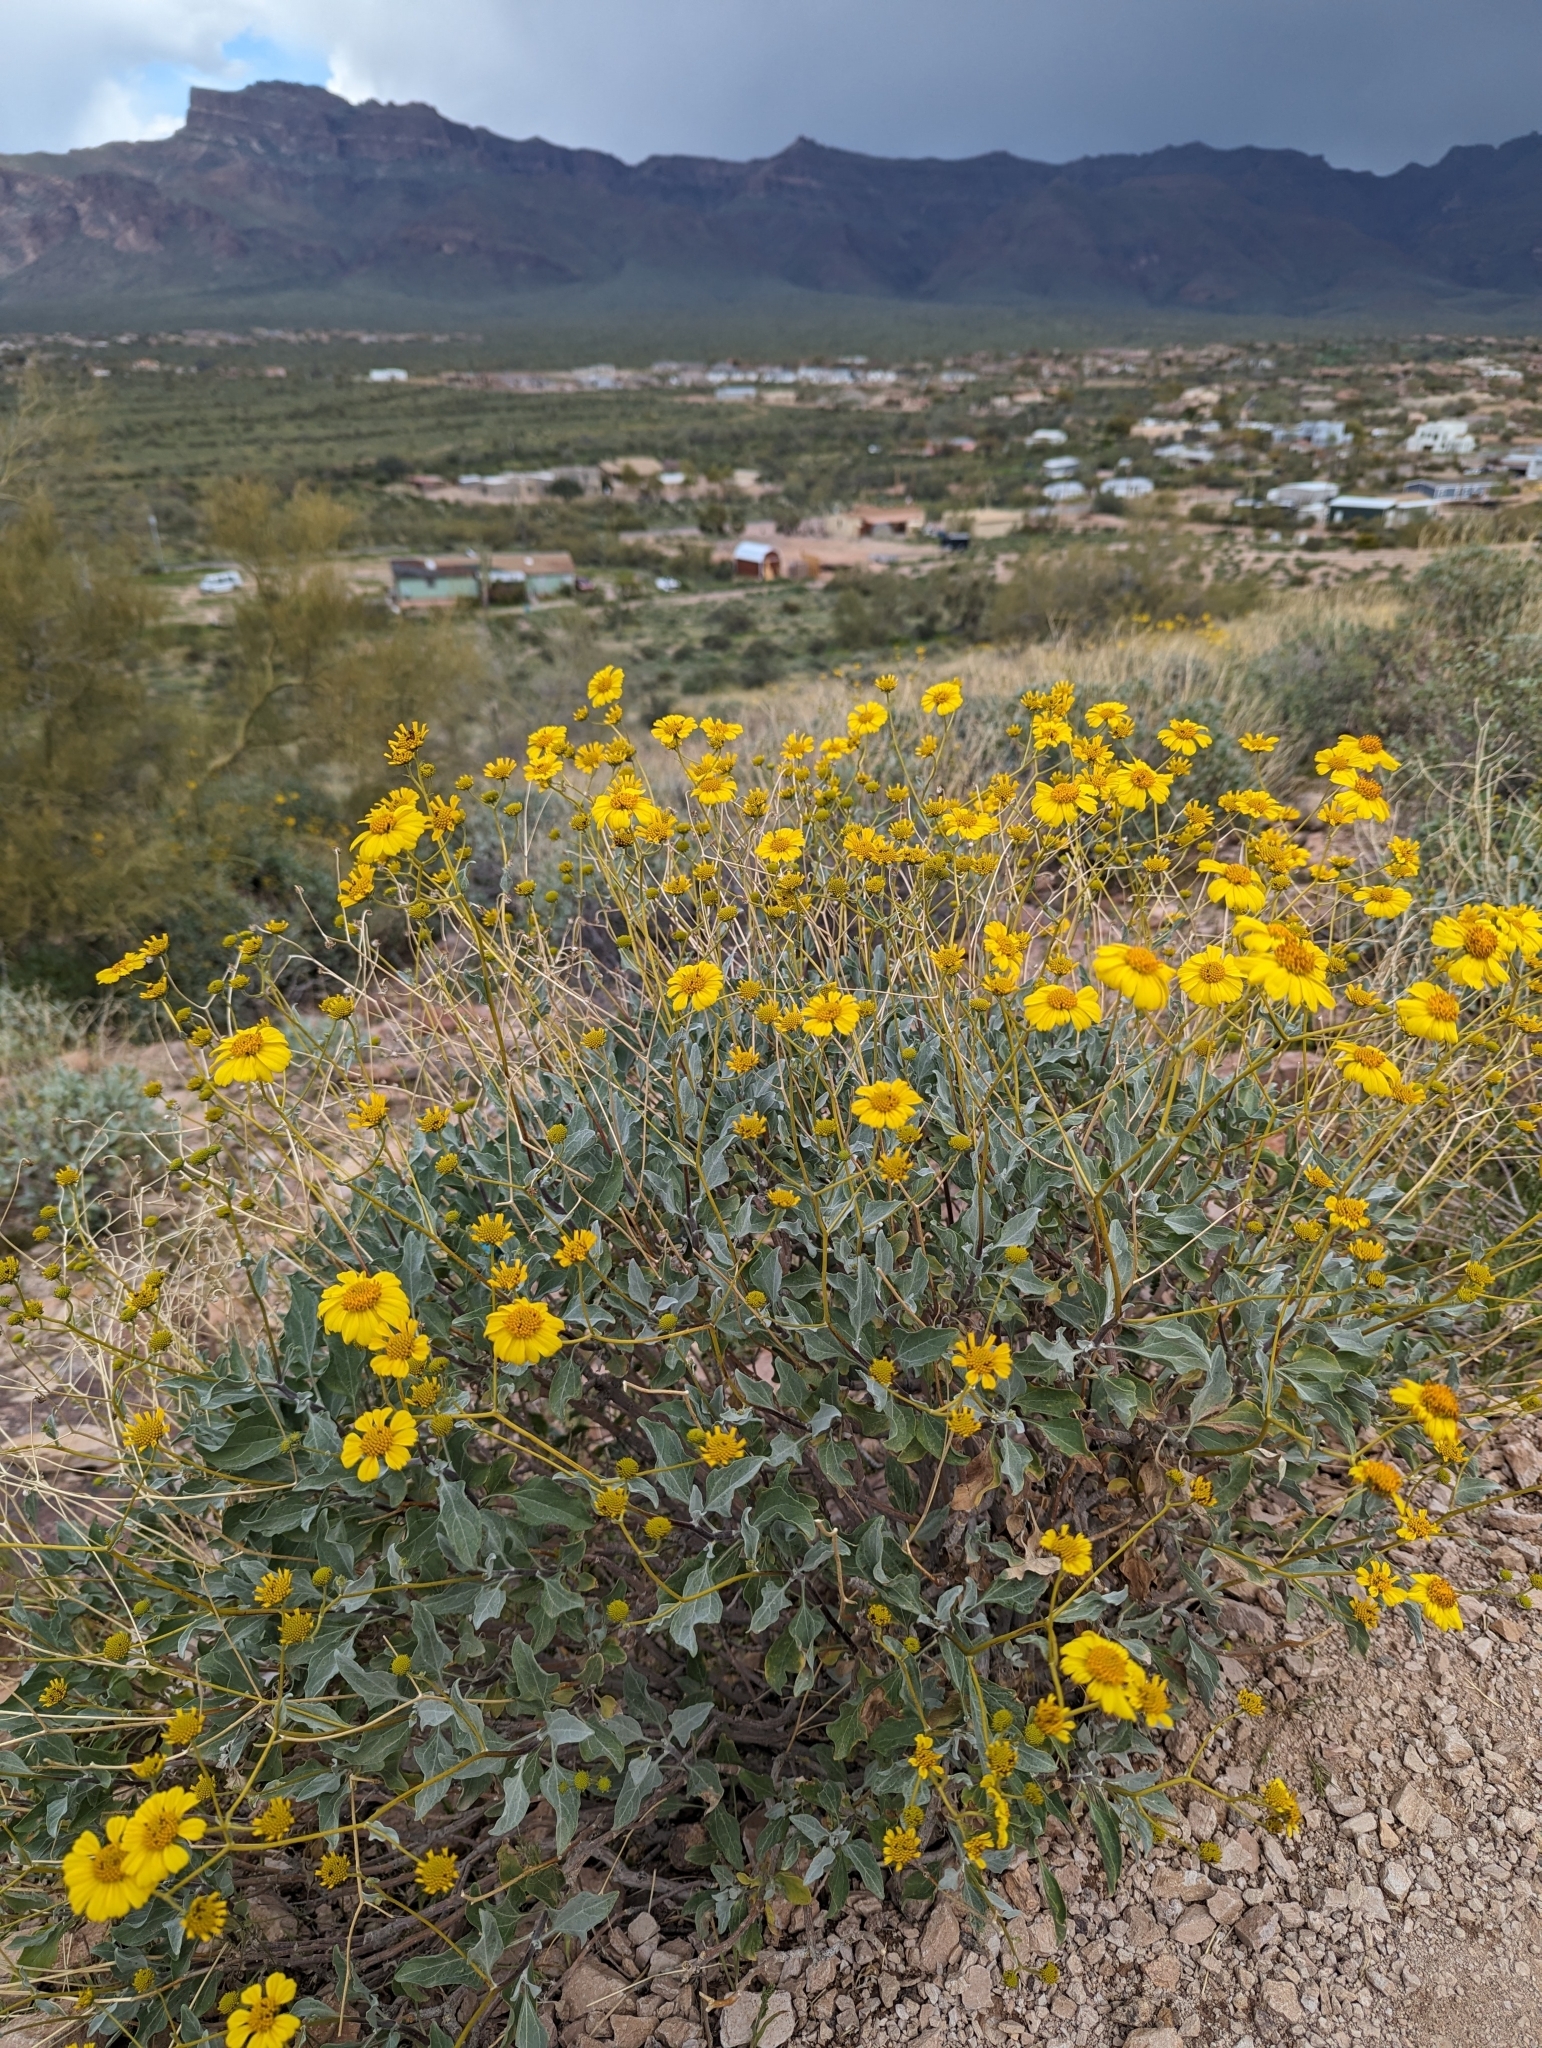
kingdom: Plantae
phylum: Tracheophyta
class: Magnoliopsida
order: Asterales
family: Asteraceae
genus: Encelia
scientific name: Encelia farinosa
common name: Brittlebush
